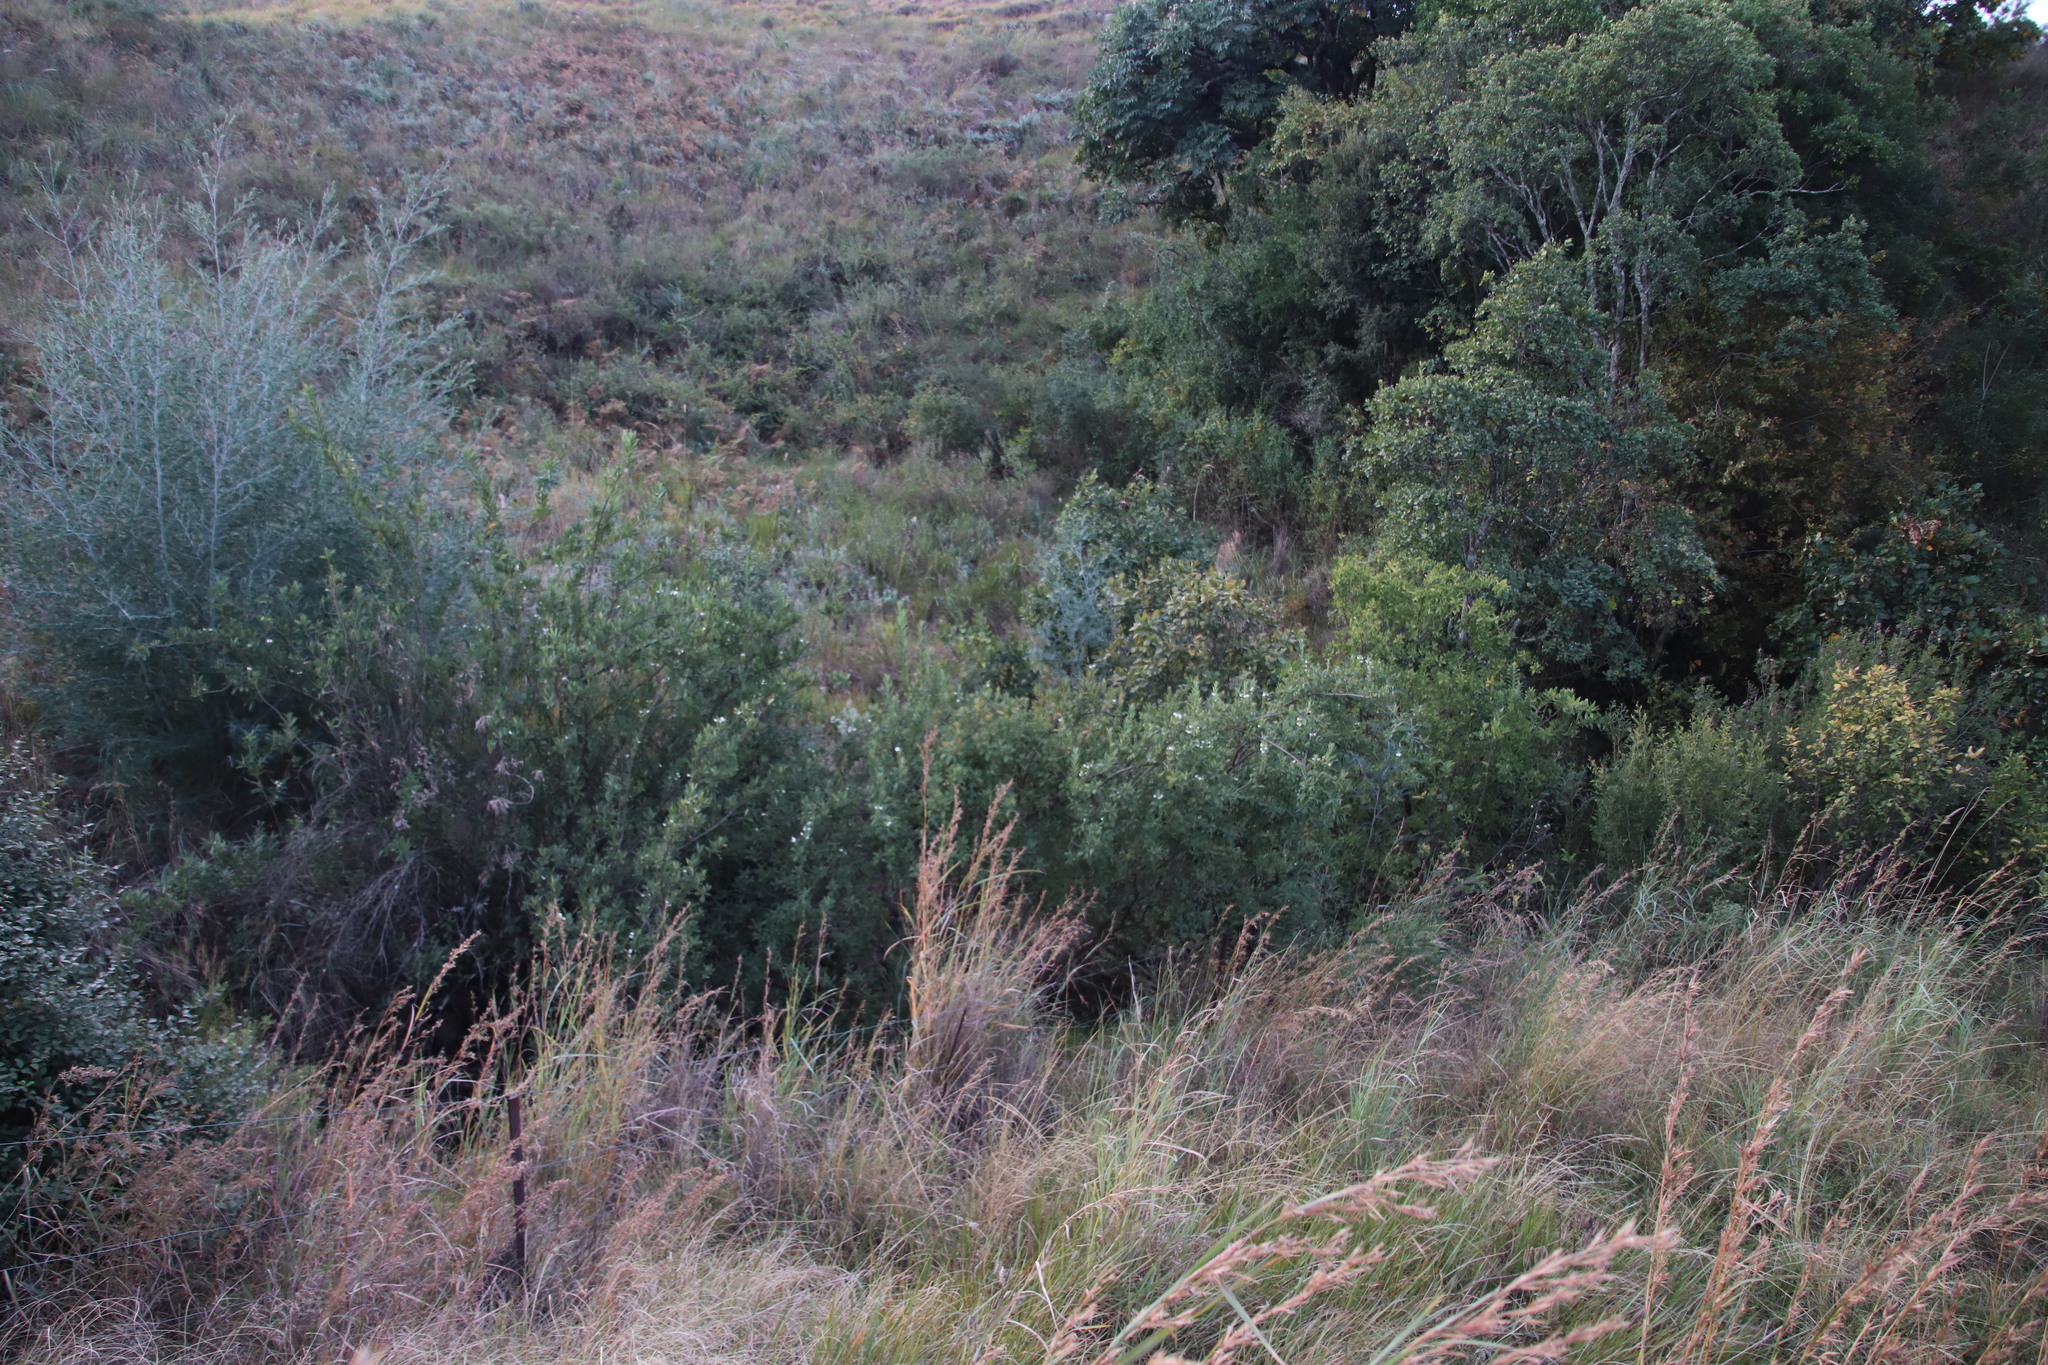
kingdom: Plantae
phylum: Tracheophyta
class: Magnoliopsida
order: Lamiales
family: Stilbaceae
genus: Bowkeria
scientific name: Bowkeria verticillata
